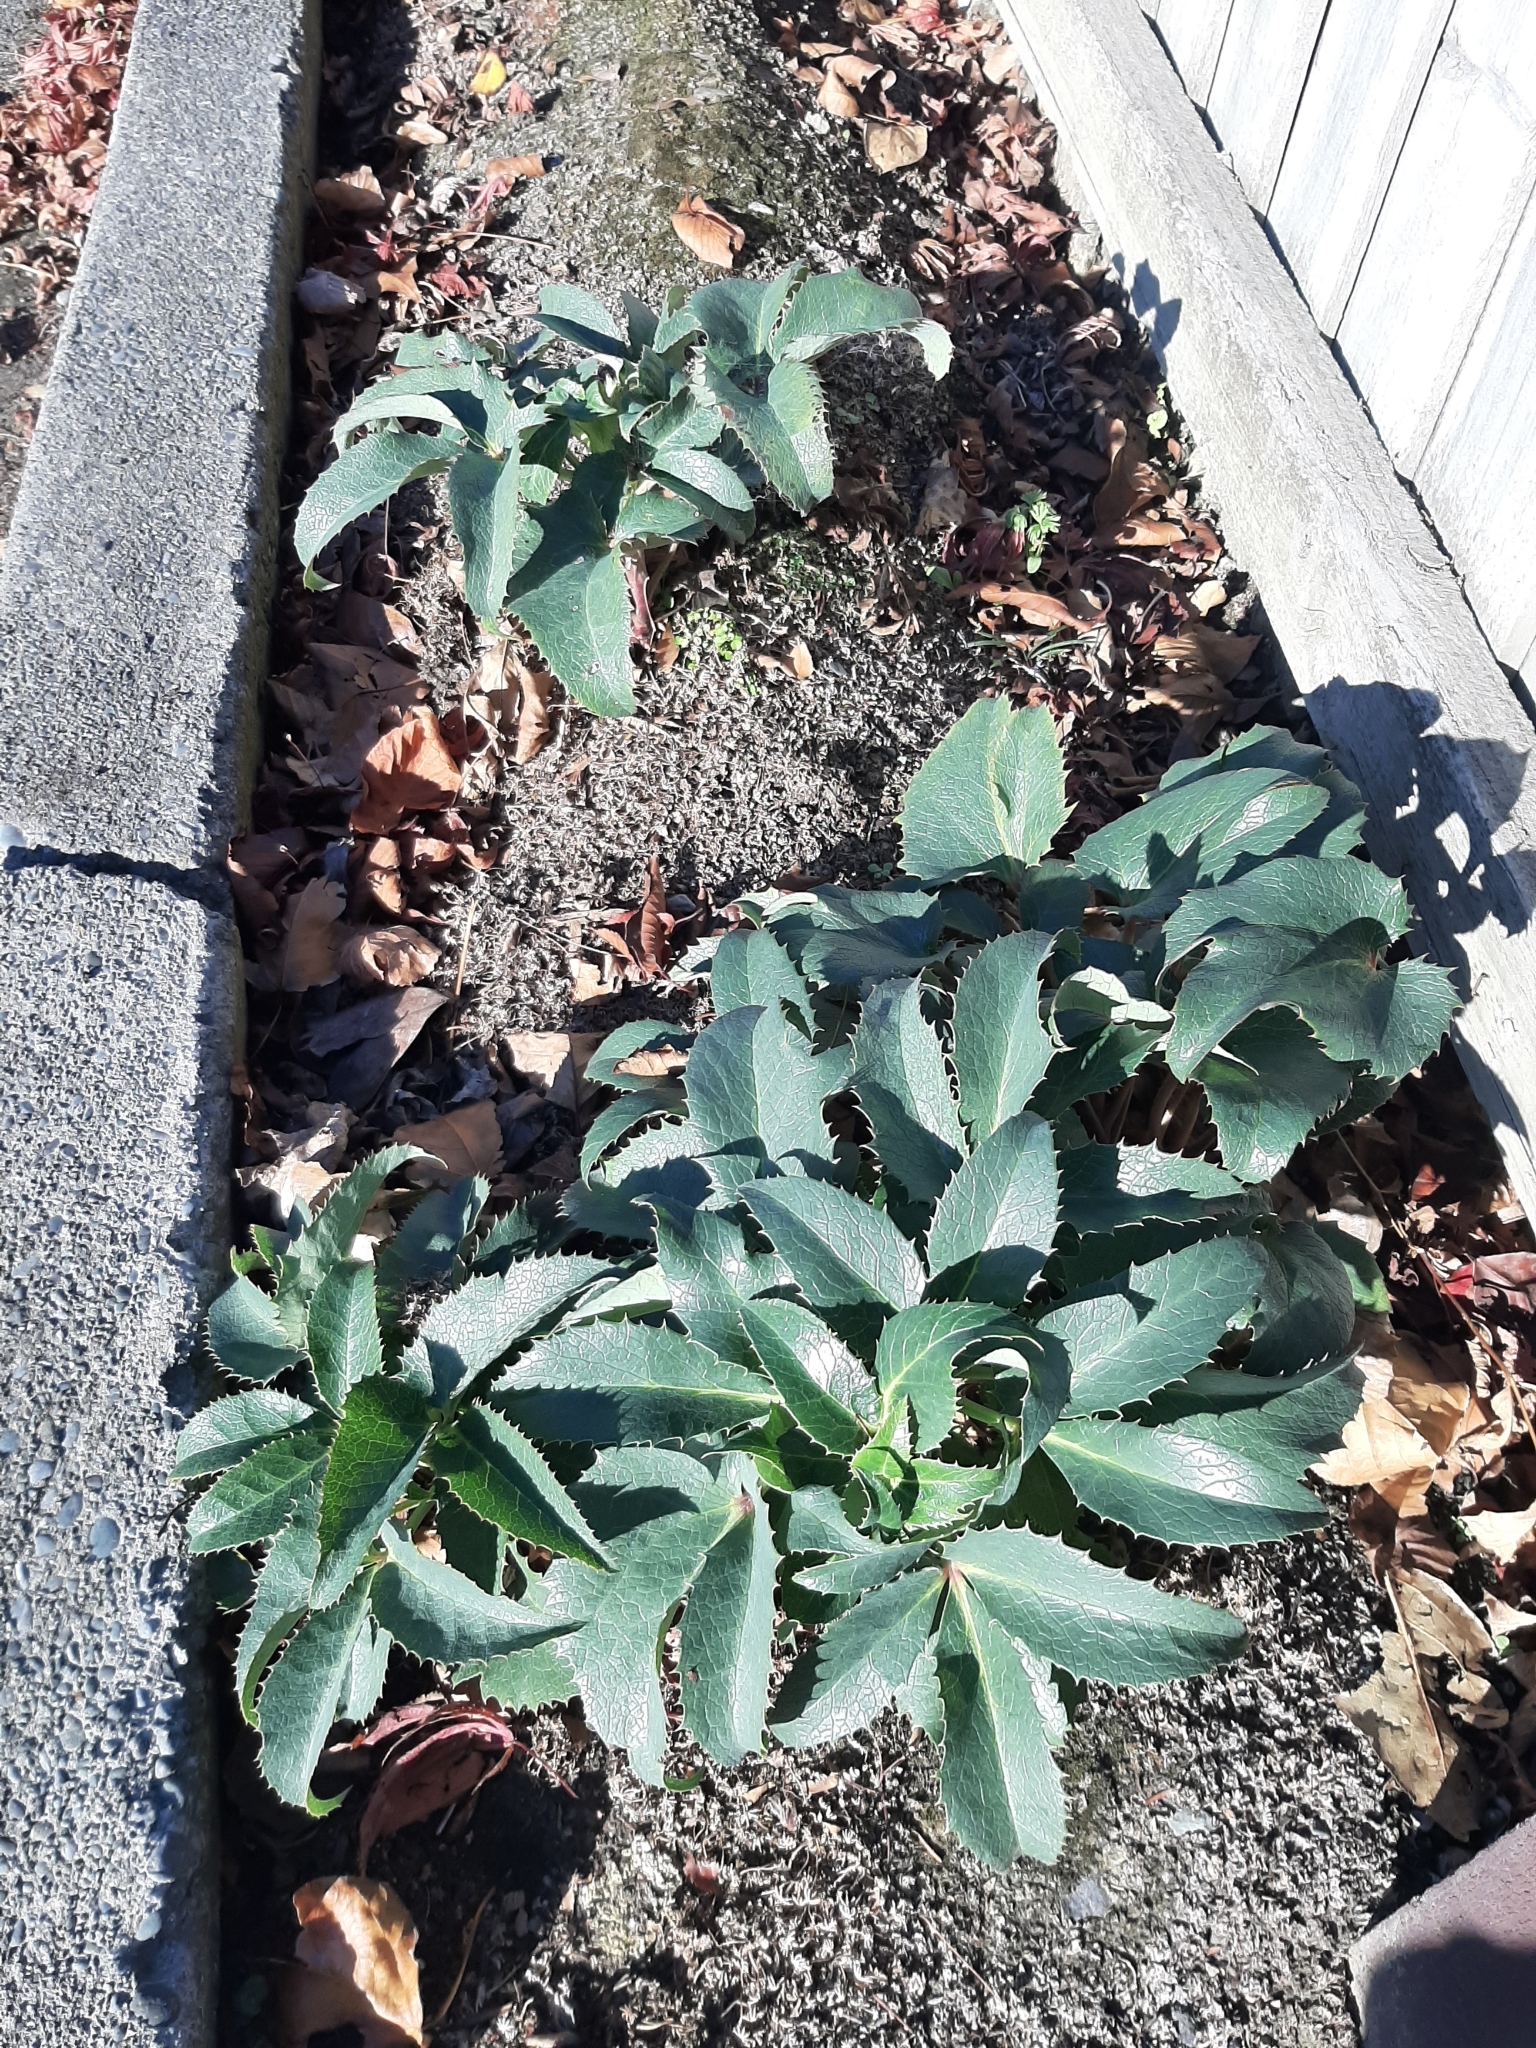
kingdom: Plantae
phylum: Tracheophyta
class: Magnoliopsida
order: Ranunculales
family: Ranunculaceae
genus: Helleborus
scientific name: Helleborus lividus
